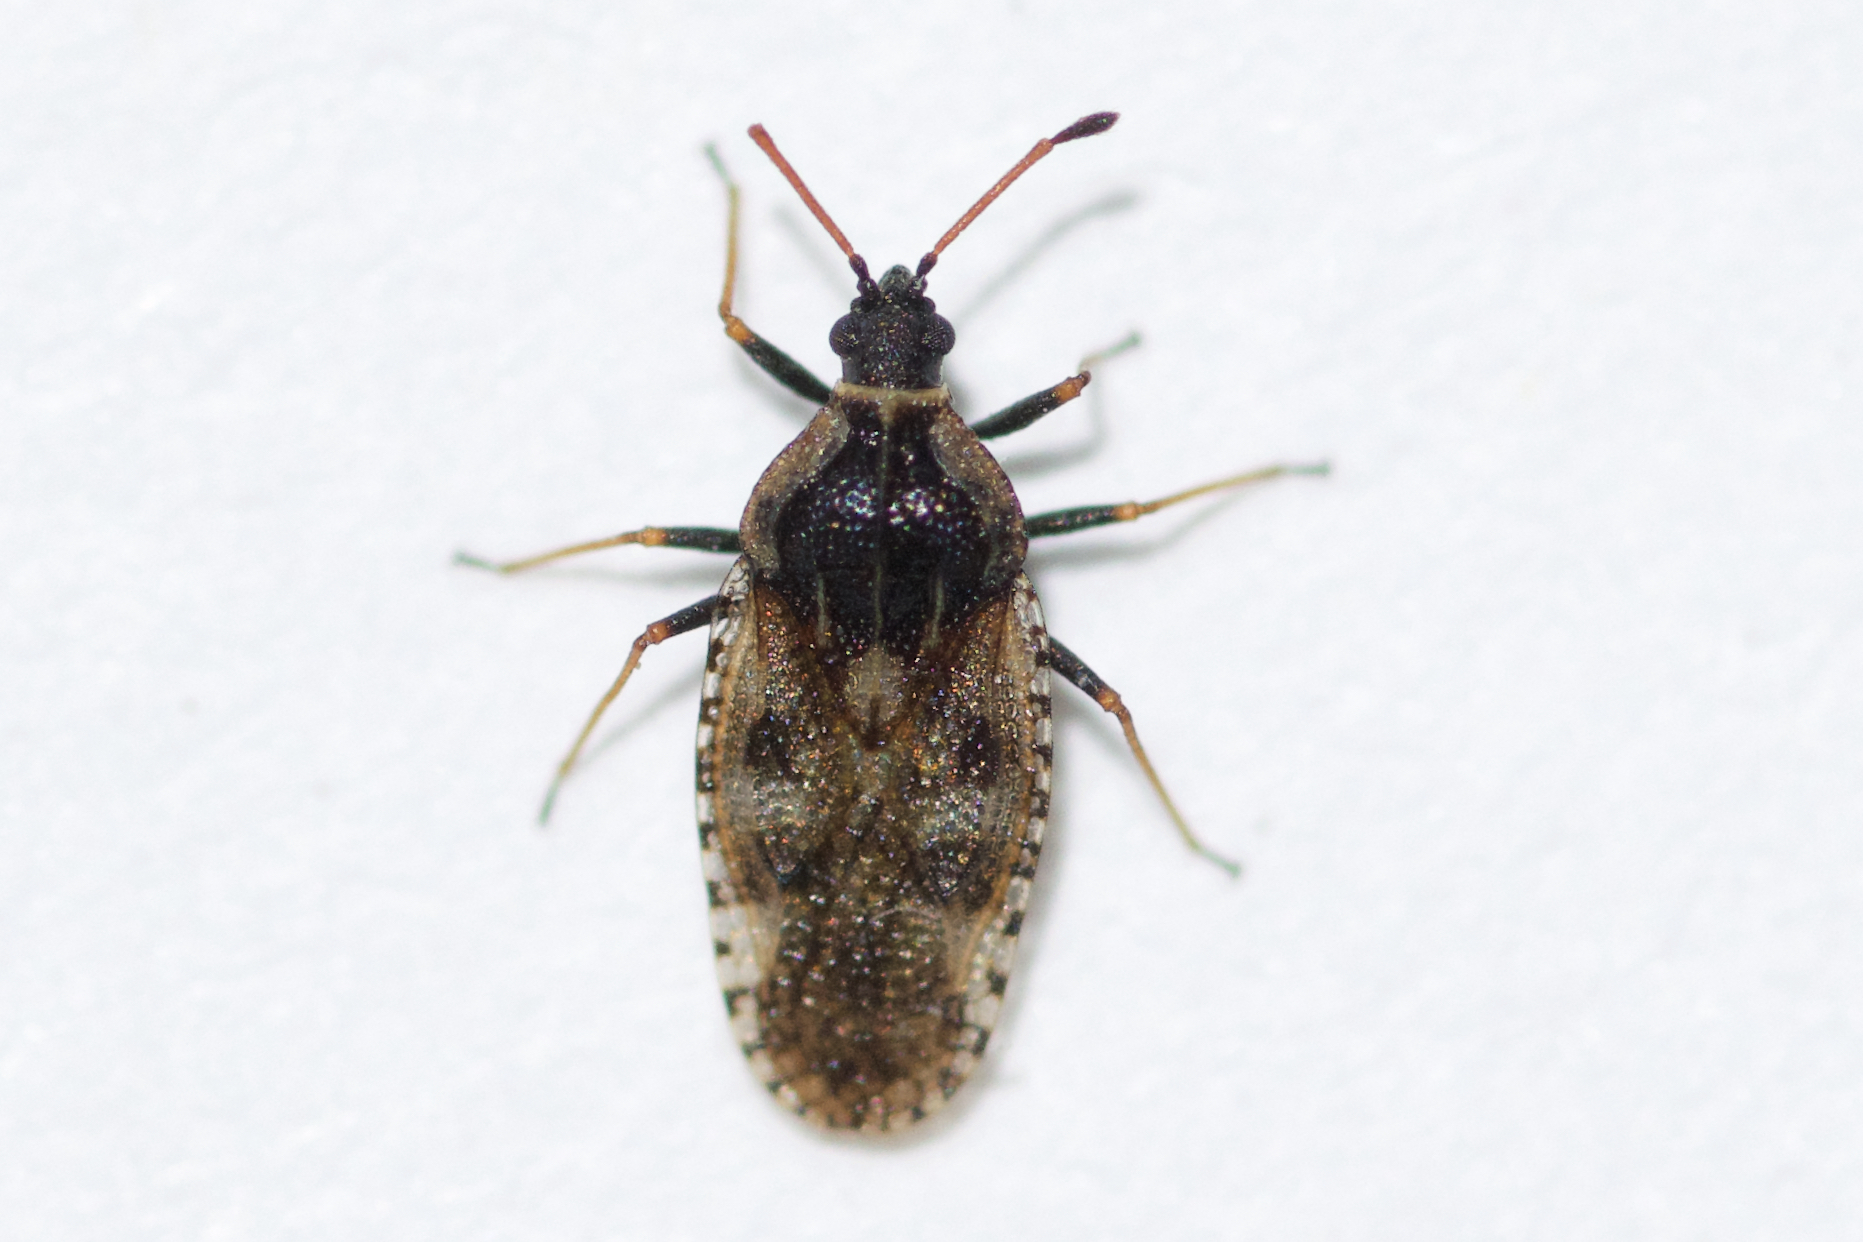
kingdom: Animalia
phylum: Arthropoda
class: Insecta
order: Hemiptera
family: Tingidae
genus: Dictyla
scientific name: Dictyla echii
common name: Lace bug
